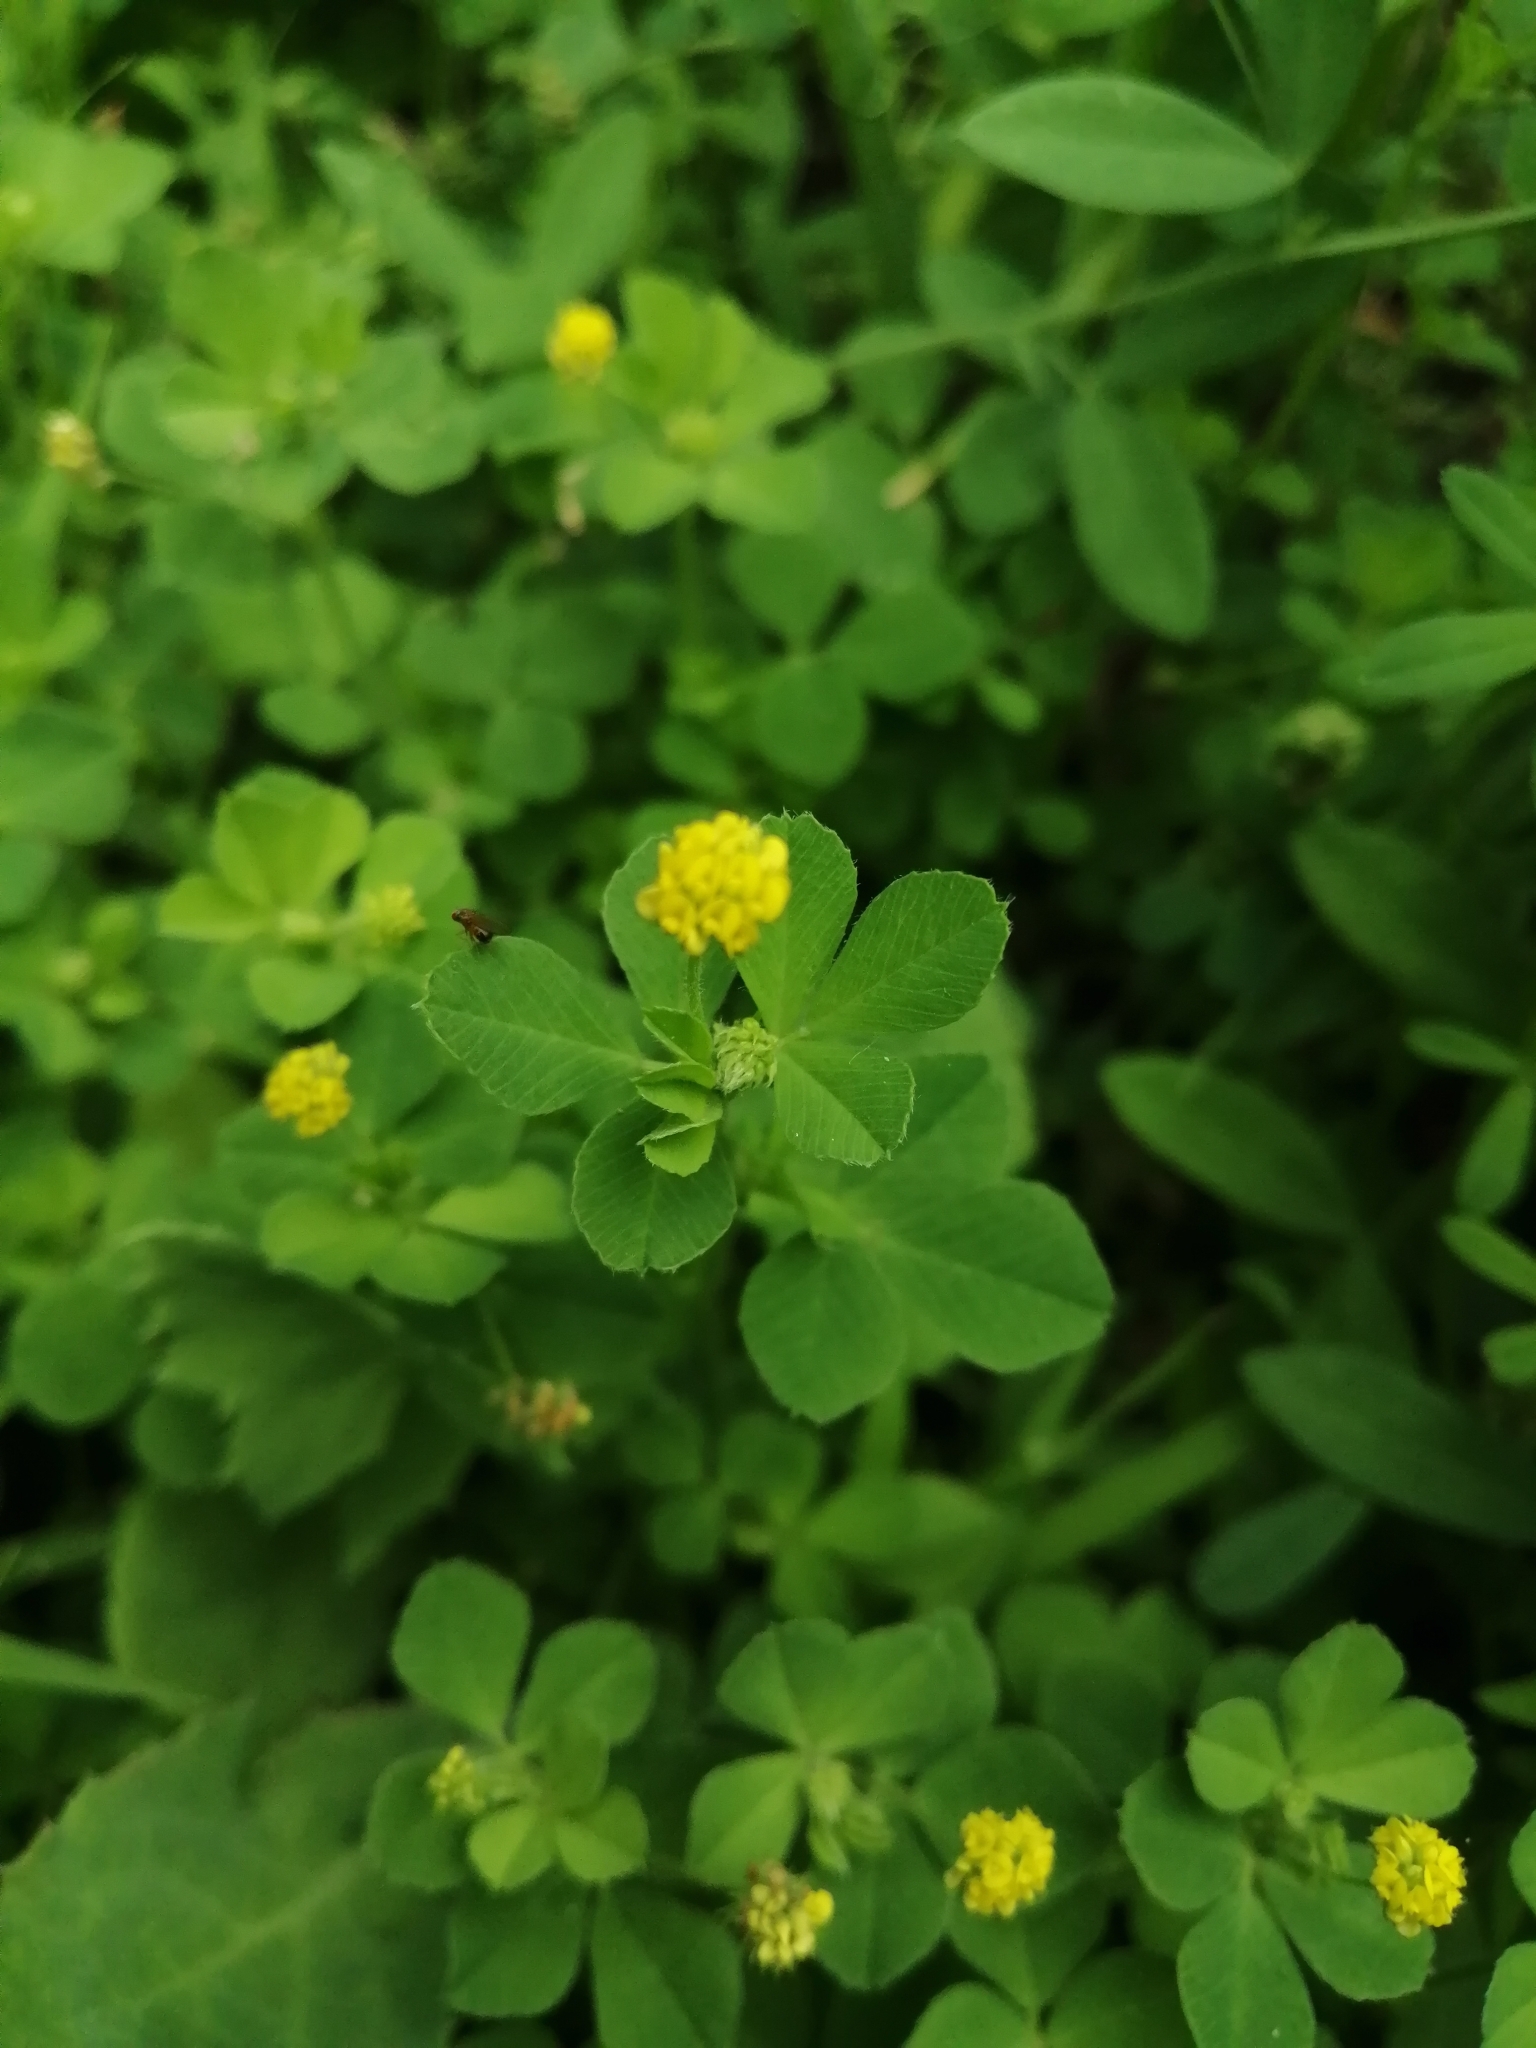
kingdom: Plantae
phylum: Tracheophyta
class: Magnoliopsida
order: Fabales
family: Fabaceae
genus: Medicago
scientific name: Medicago lupulina
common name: Black medick
